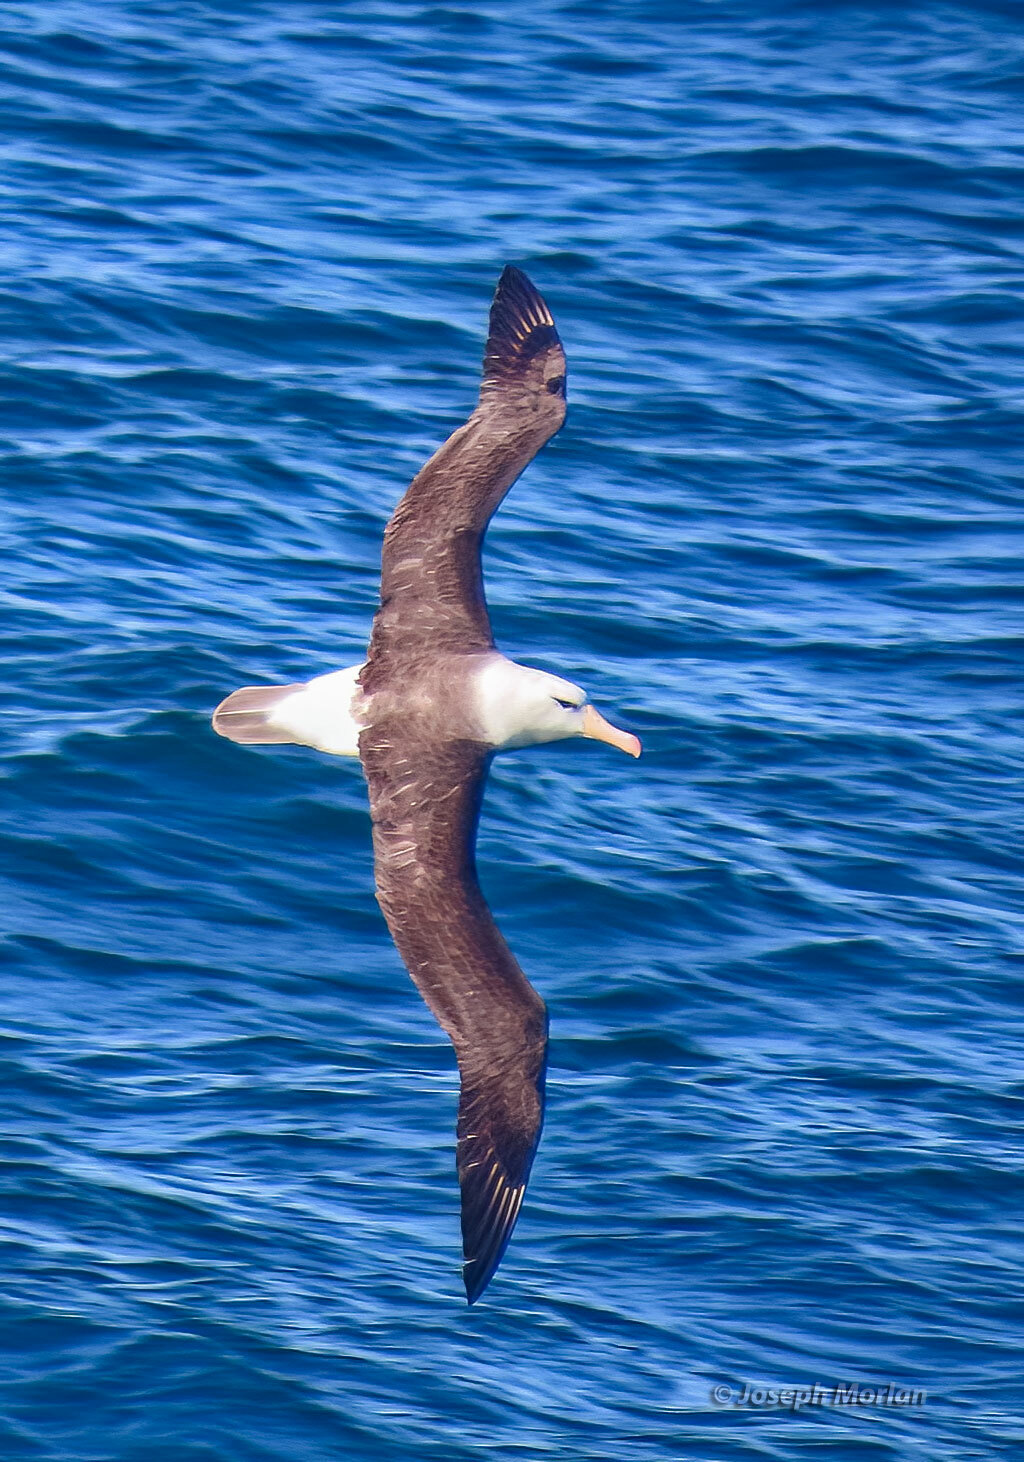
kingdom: Animalia
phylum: Chordata
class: Aves
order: Procellariiformes
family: Diomedeidae
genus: Thalassarche
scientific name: Thalassarche melanophris
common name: Black-browed albatross
